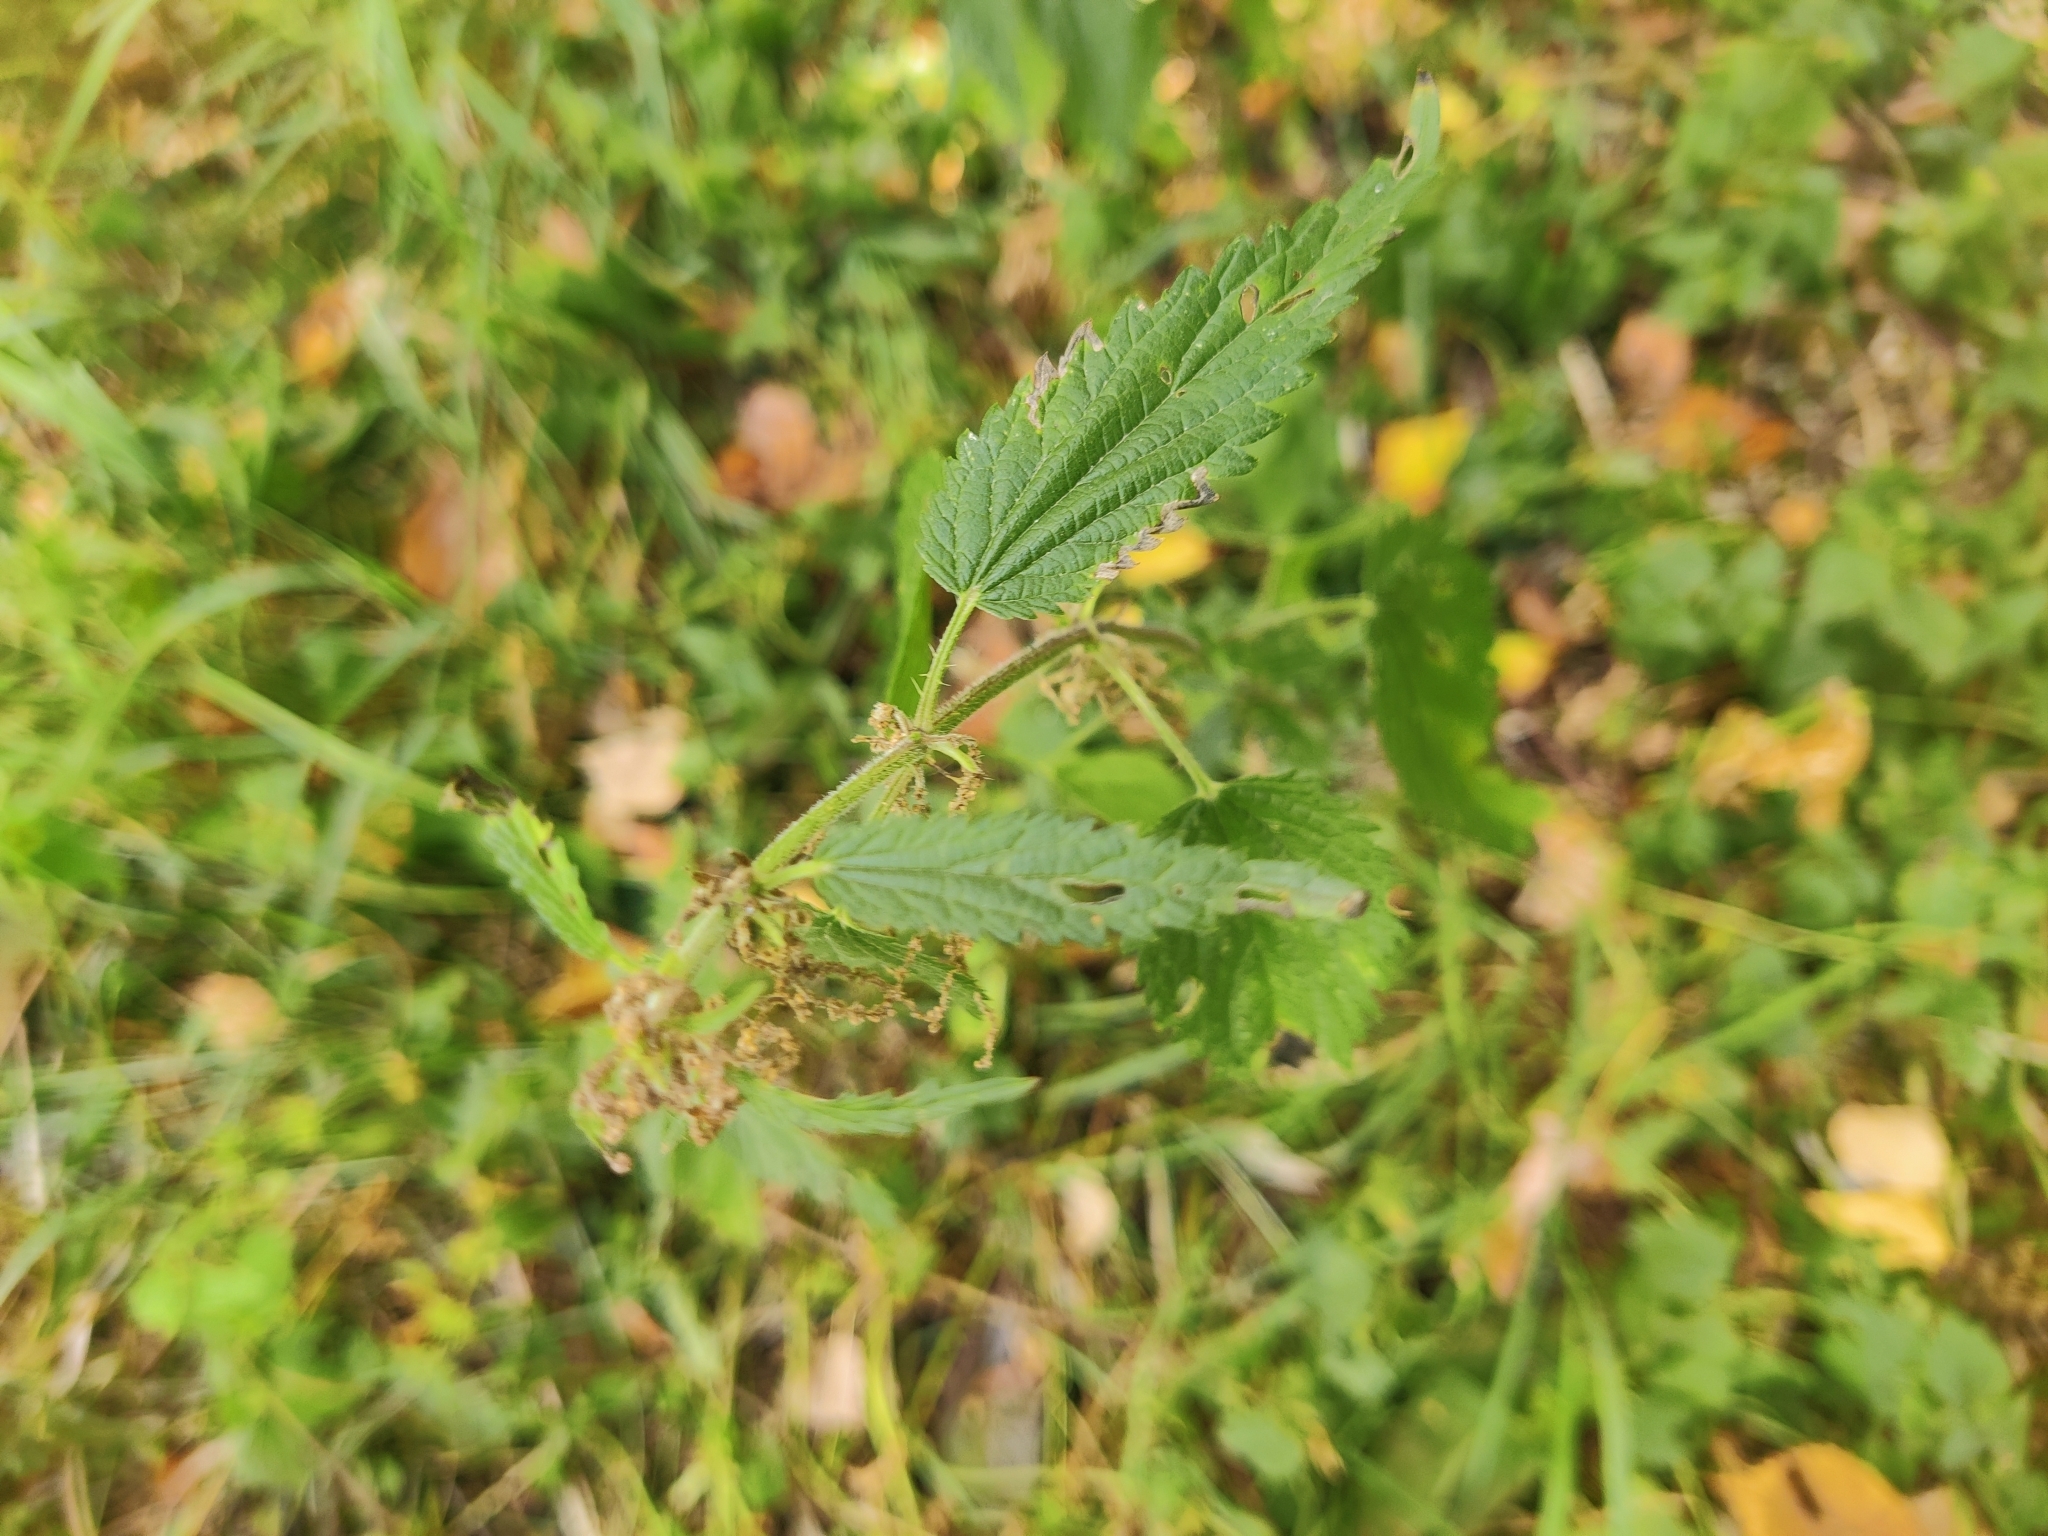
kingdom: Plantae
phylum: Tracheophyta
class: Magnoliopsida
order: Rosales
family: Urticaceae
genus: Urtica
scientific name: Urtica dioica
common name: Common nettle
